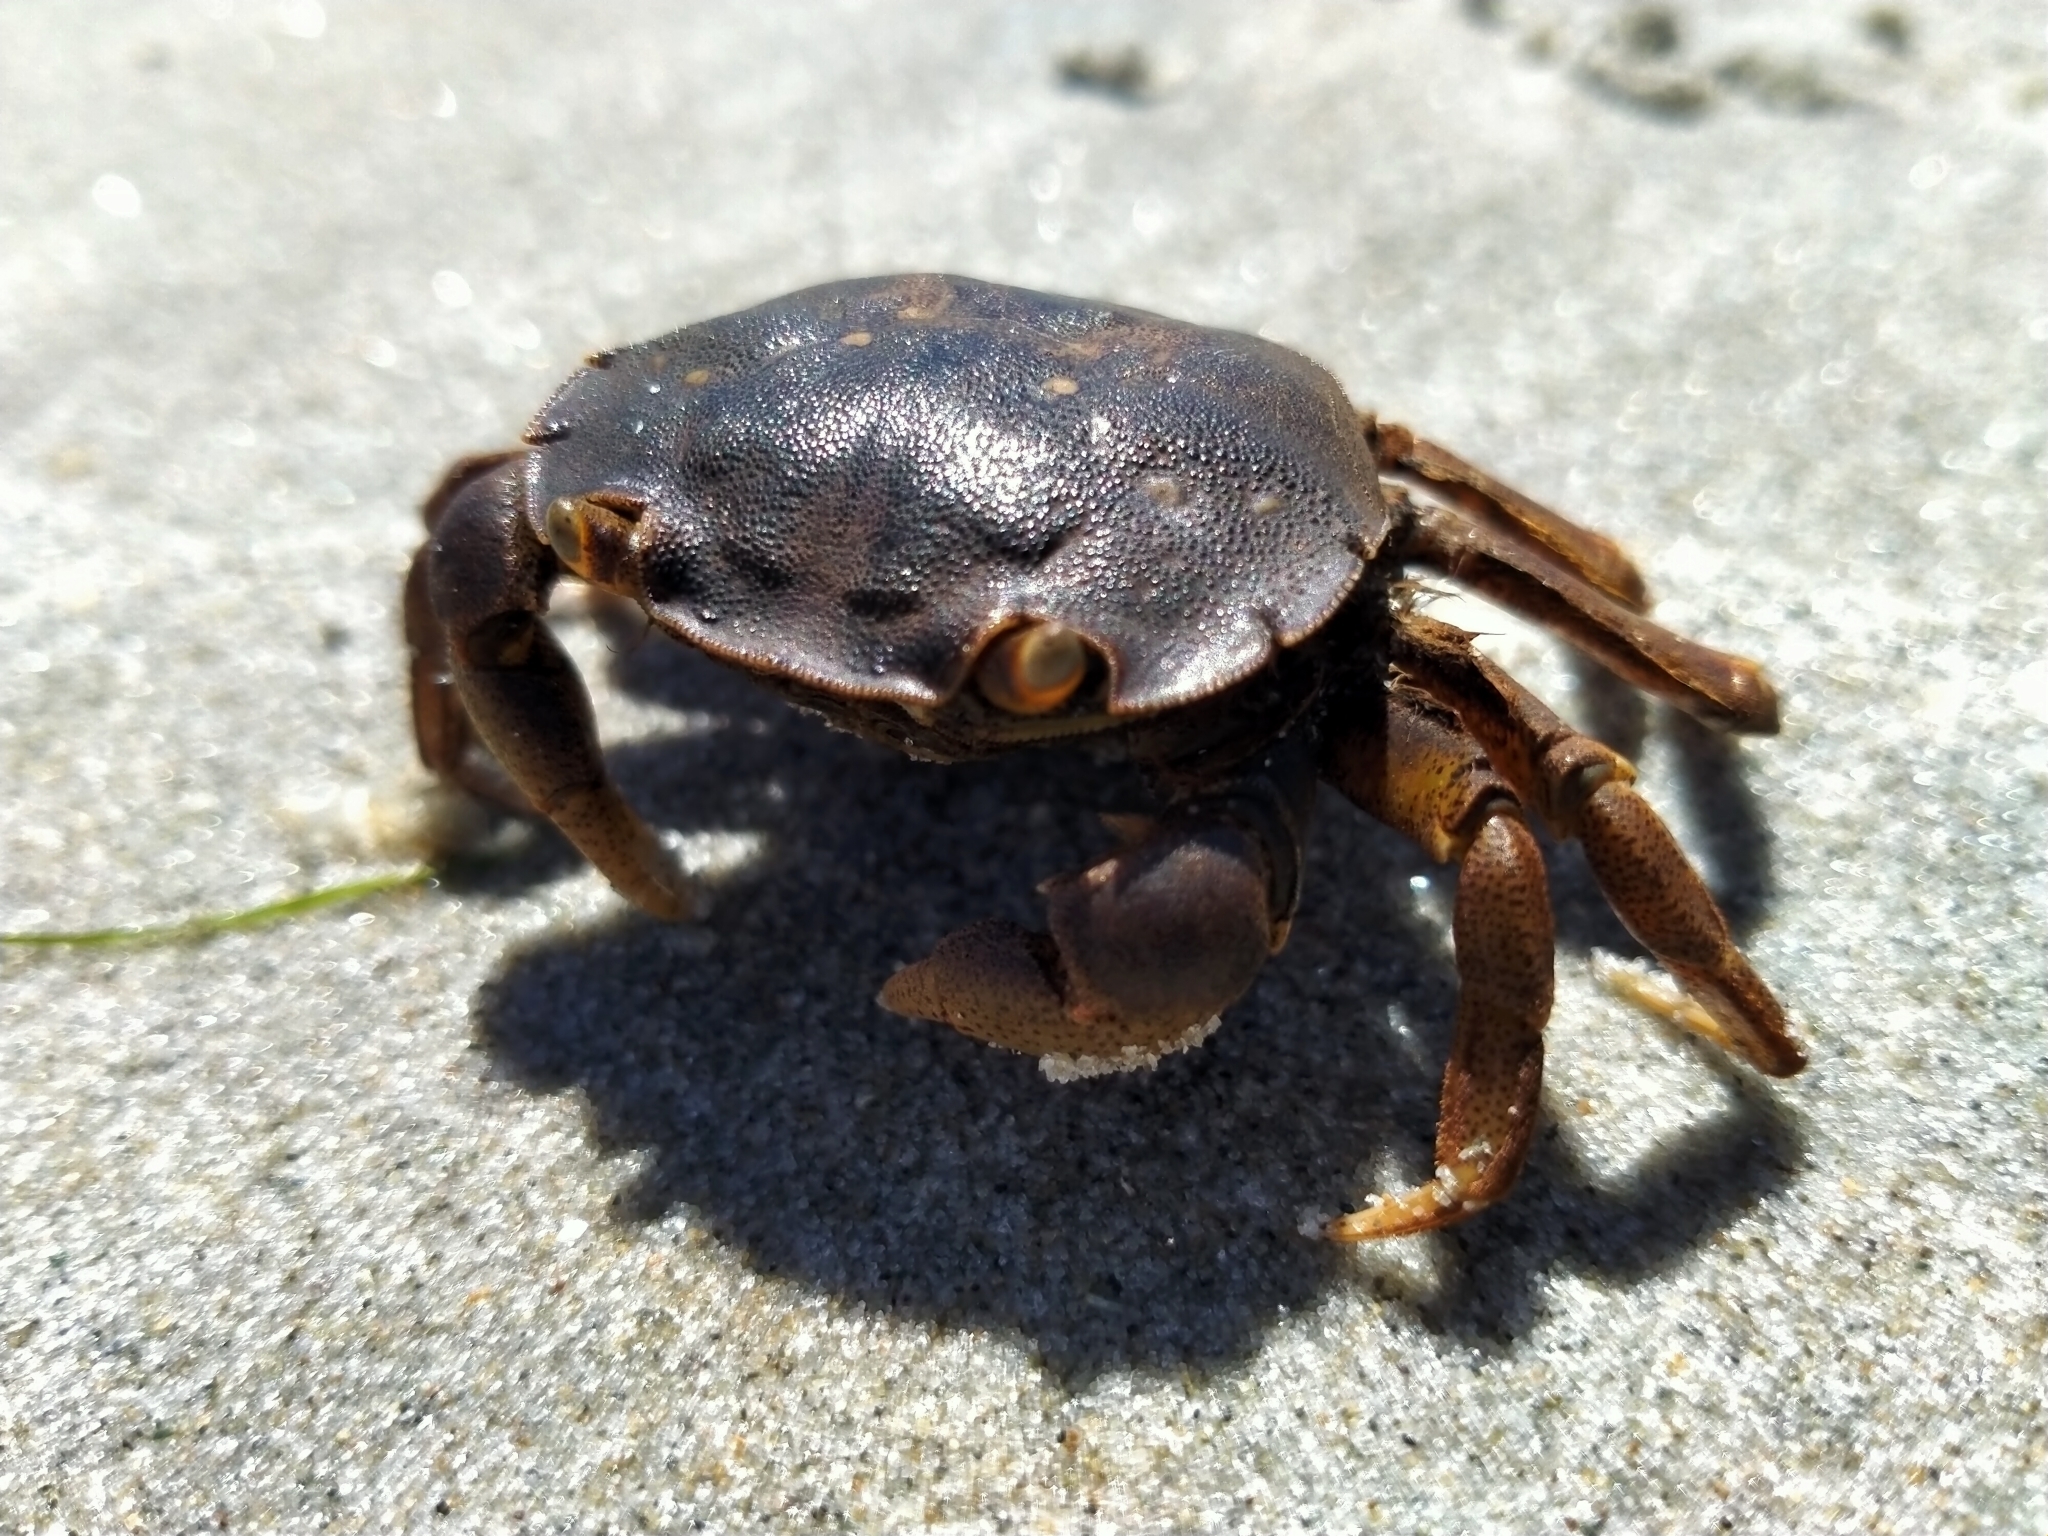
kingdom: Animalia
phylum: Arthropoda
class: Malacostraca
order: Decapoda
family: Varunidae
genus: Hemigrapsus
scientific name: Hemigrapsus crenulatus
